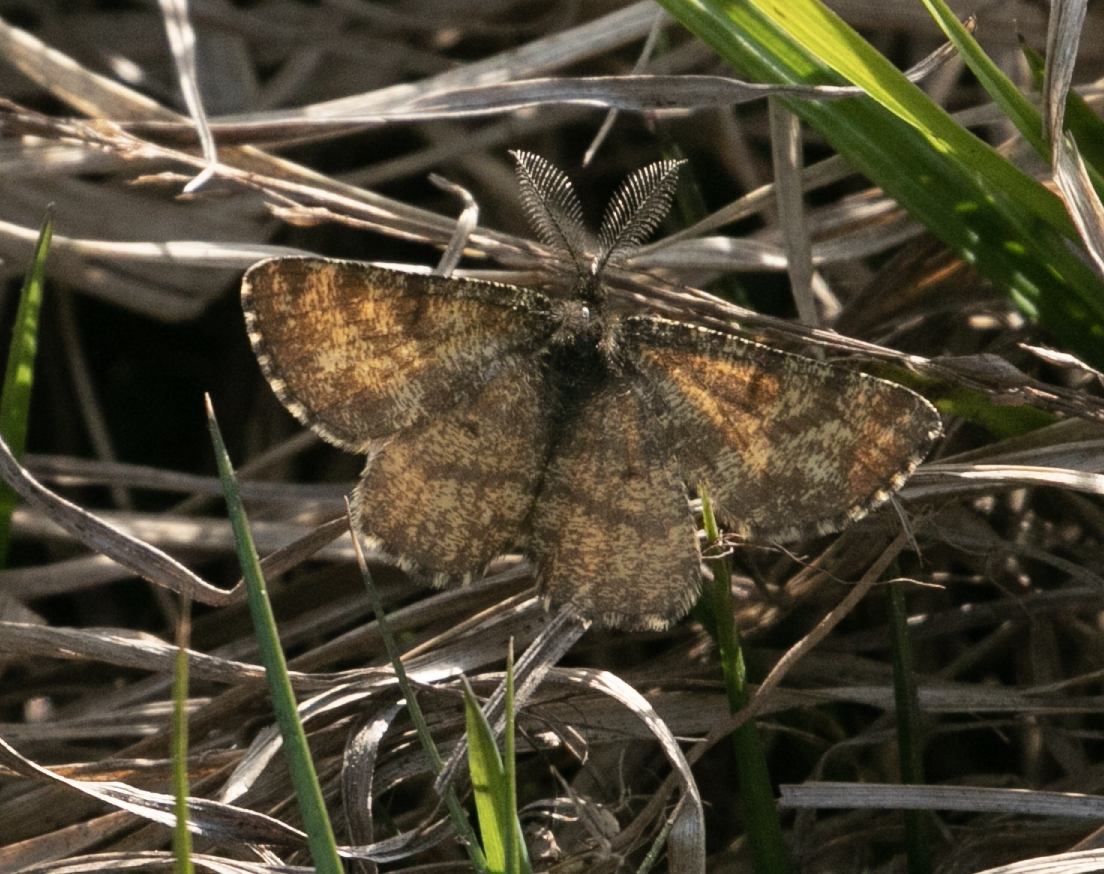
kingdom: Animalia
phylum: Arthropoda
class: Insecta
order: Lepidoptera
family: Geometridae
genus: Ematurga
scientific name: Ematurga atomaria
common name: Common heath
